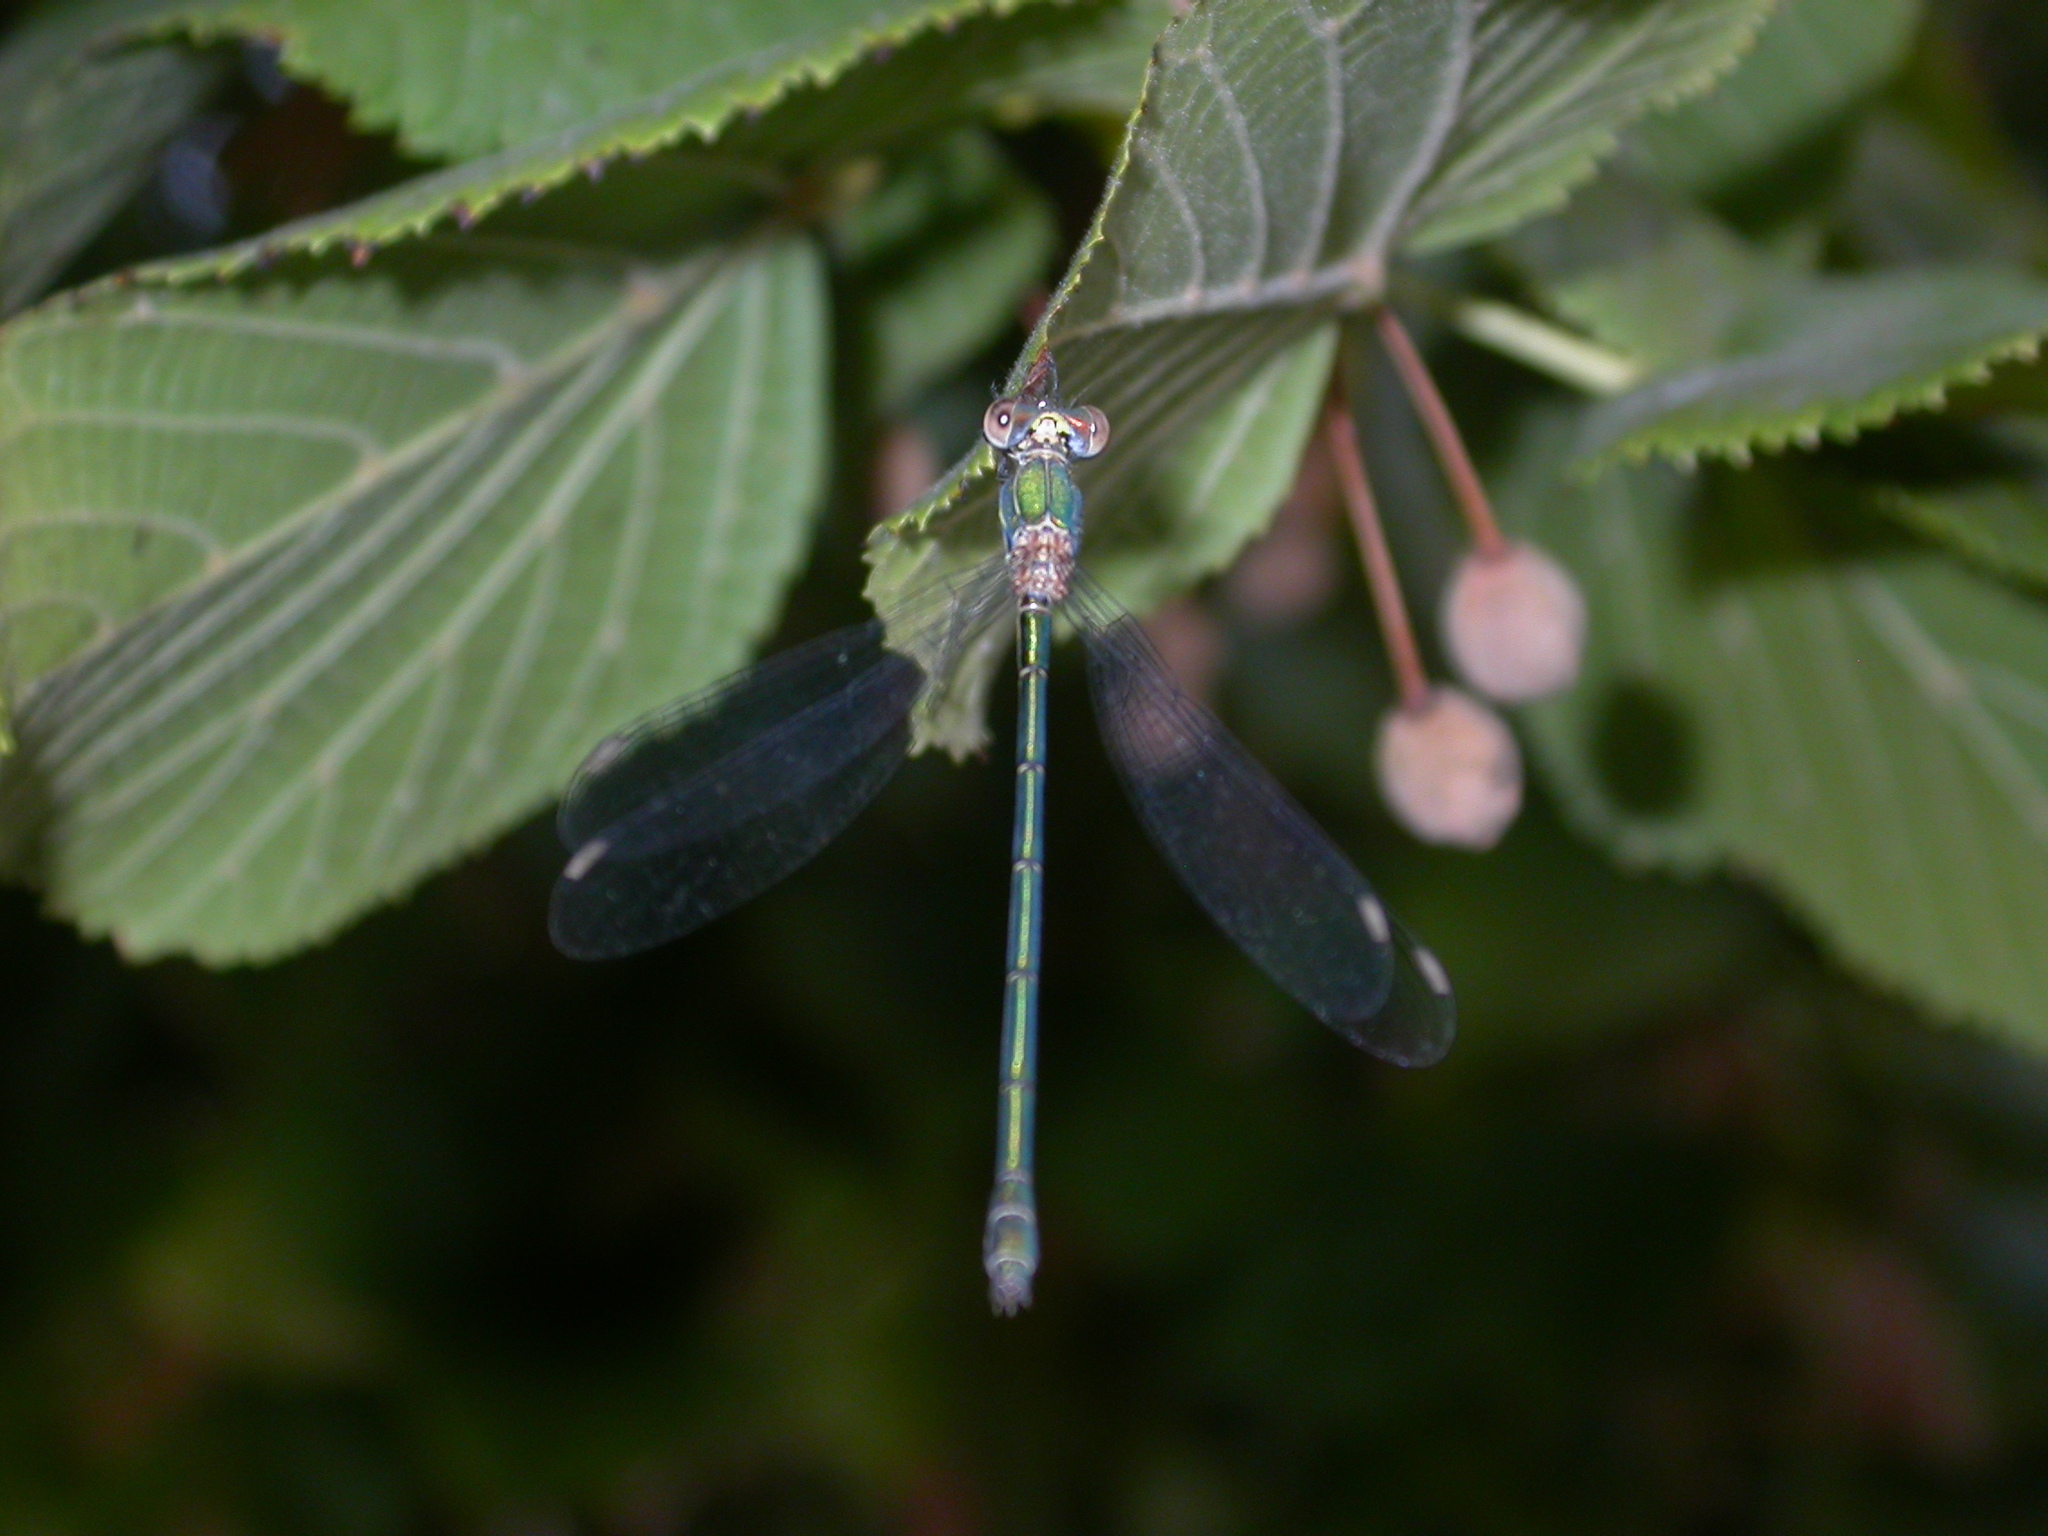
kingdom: Animalia
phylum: Arthropoda
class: Insecta
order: Odonata
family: Lestidae
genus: Chalcolestes
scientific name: Chalcolestes viridis
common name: Green emerald damselfly
